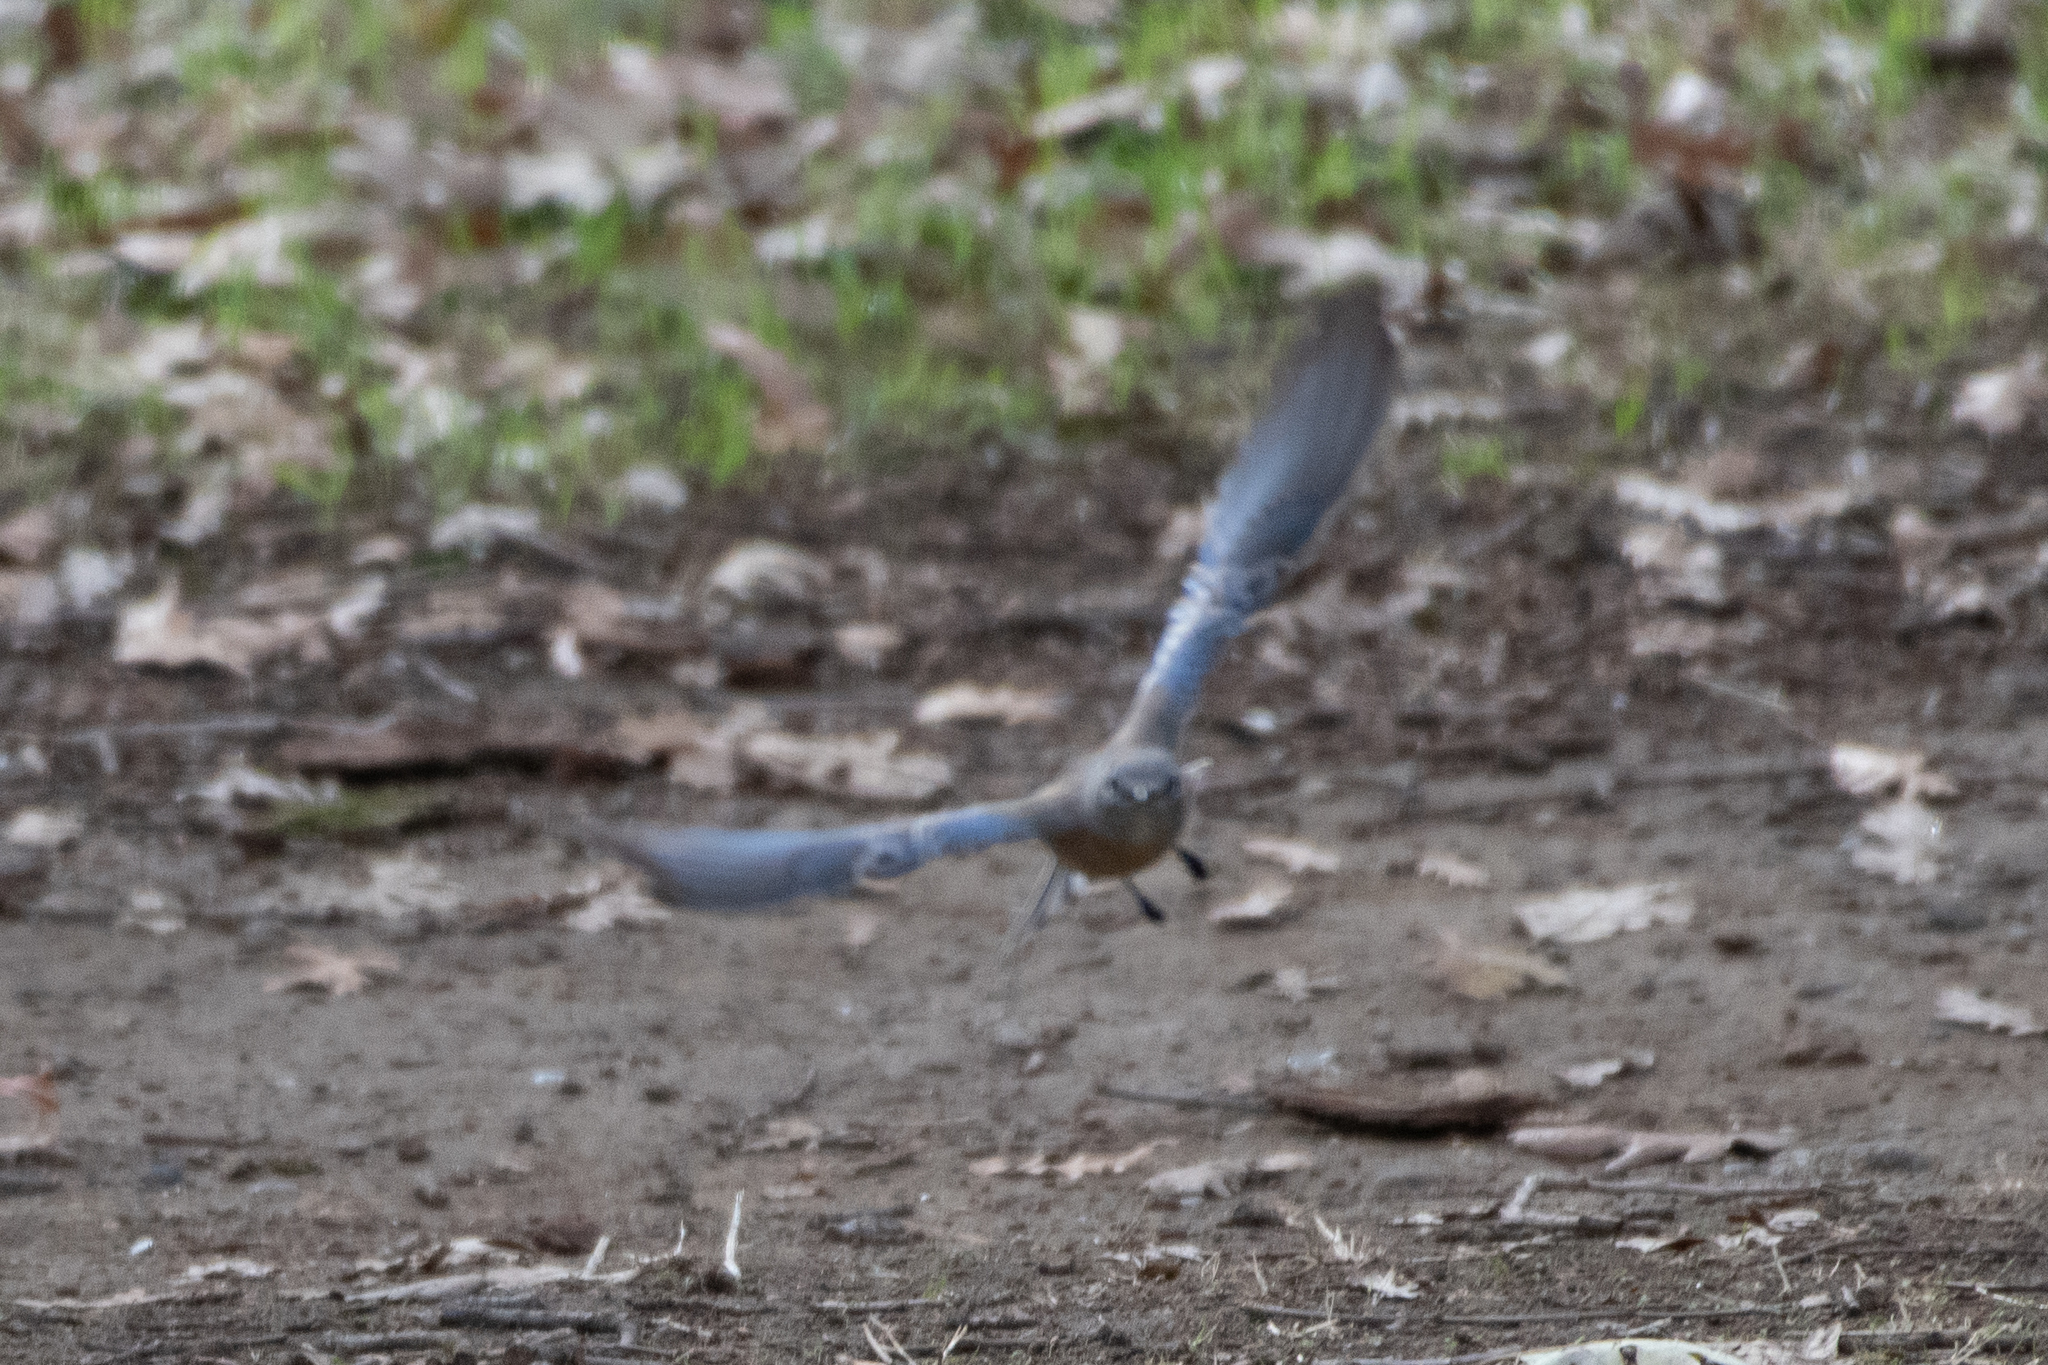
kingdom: Animalia
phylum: Chordata
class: Aves
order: Passeriformes
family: Turdidae
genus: Sialia
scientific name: Sialia mexicana
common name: Western bluebird
